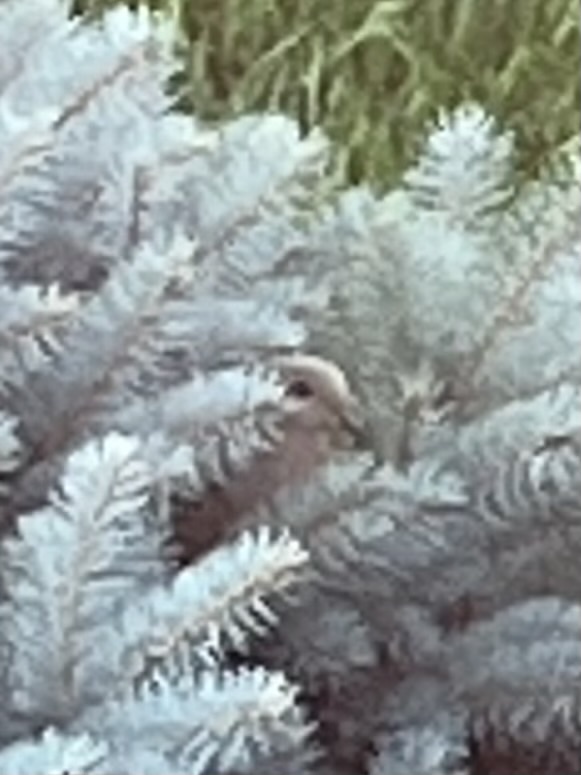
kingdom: Animalia
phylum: Chordata
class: Aves
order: Columbiformes
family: Columbidae
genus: Zenaida
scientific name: Zenaida macroura
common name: Mourning dove
